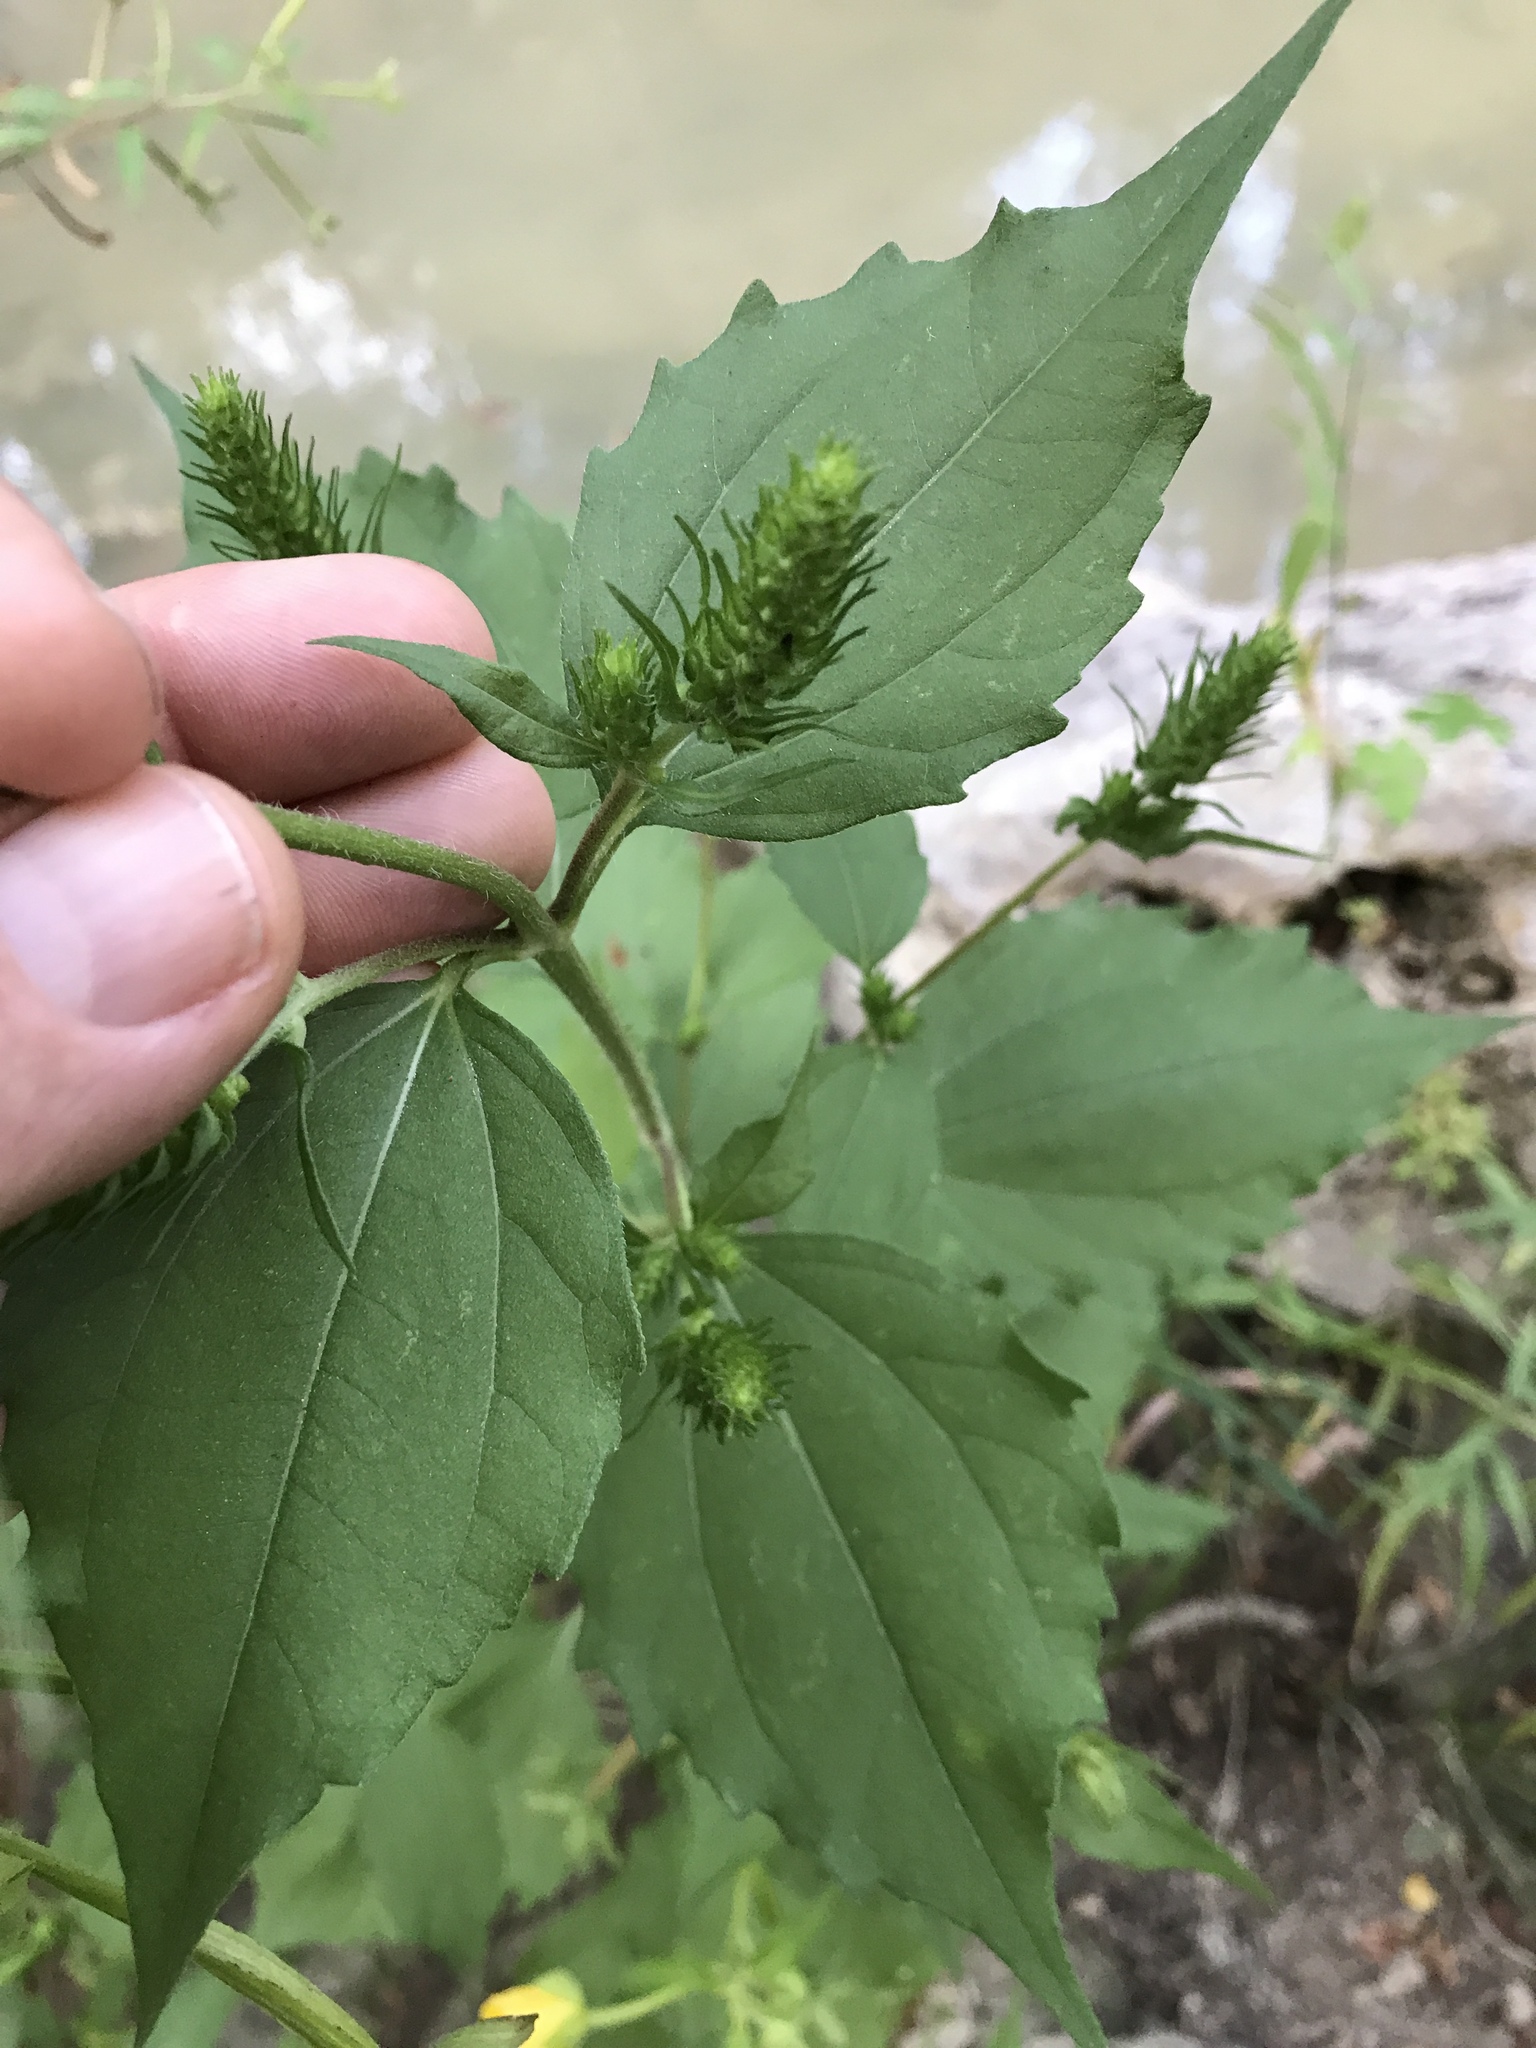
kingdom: Plantae
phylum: Tracheophyta
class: Magnoliopsida
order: Asterales
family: Asteraceae
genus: Iva
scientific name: Iva annua
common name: Marsh-elder
